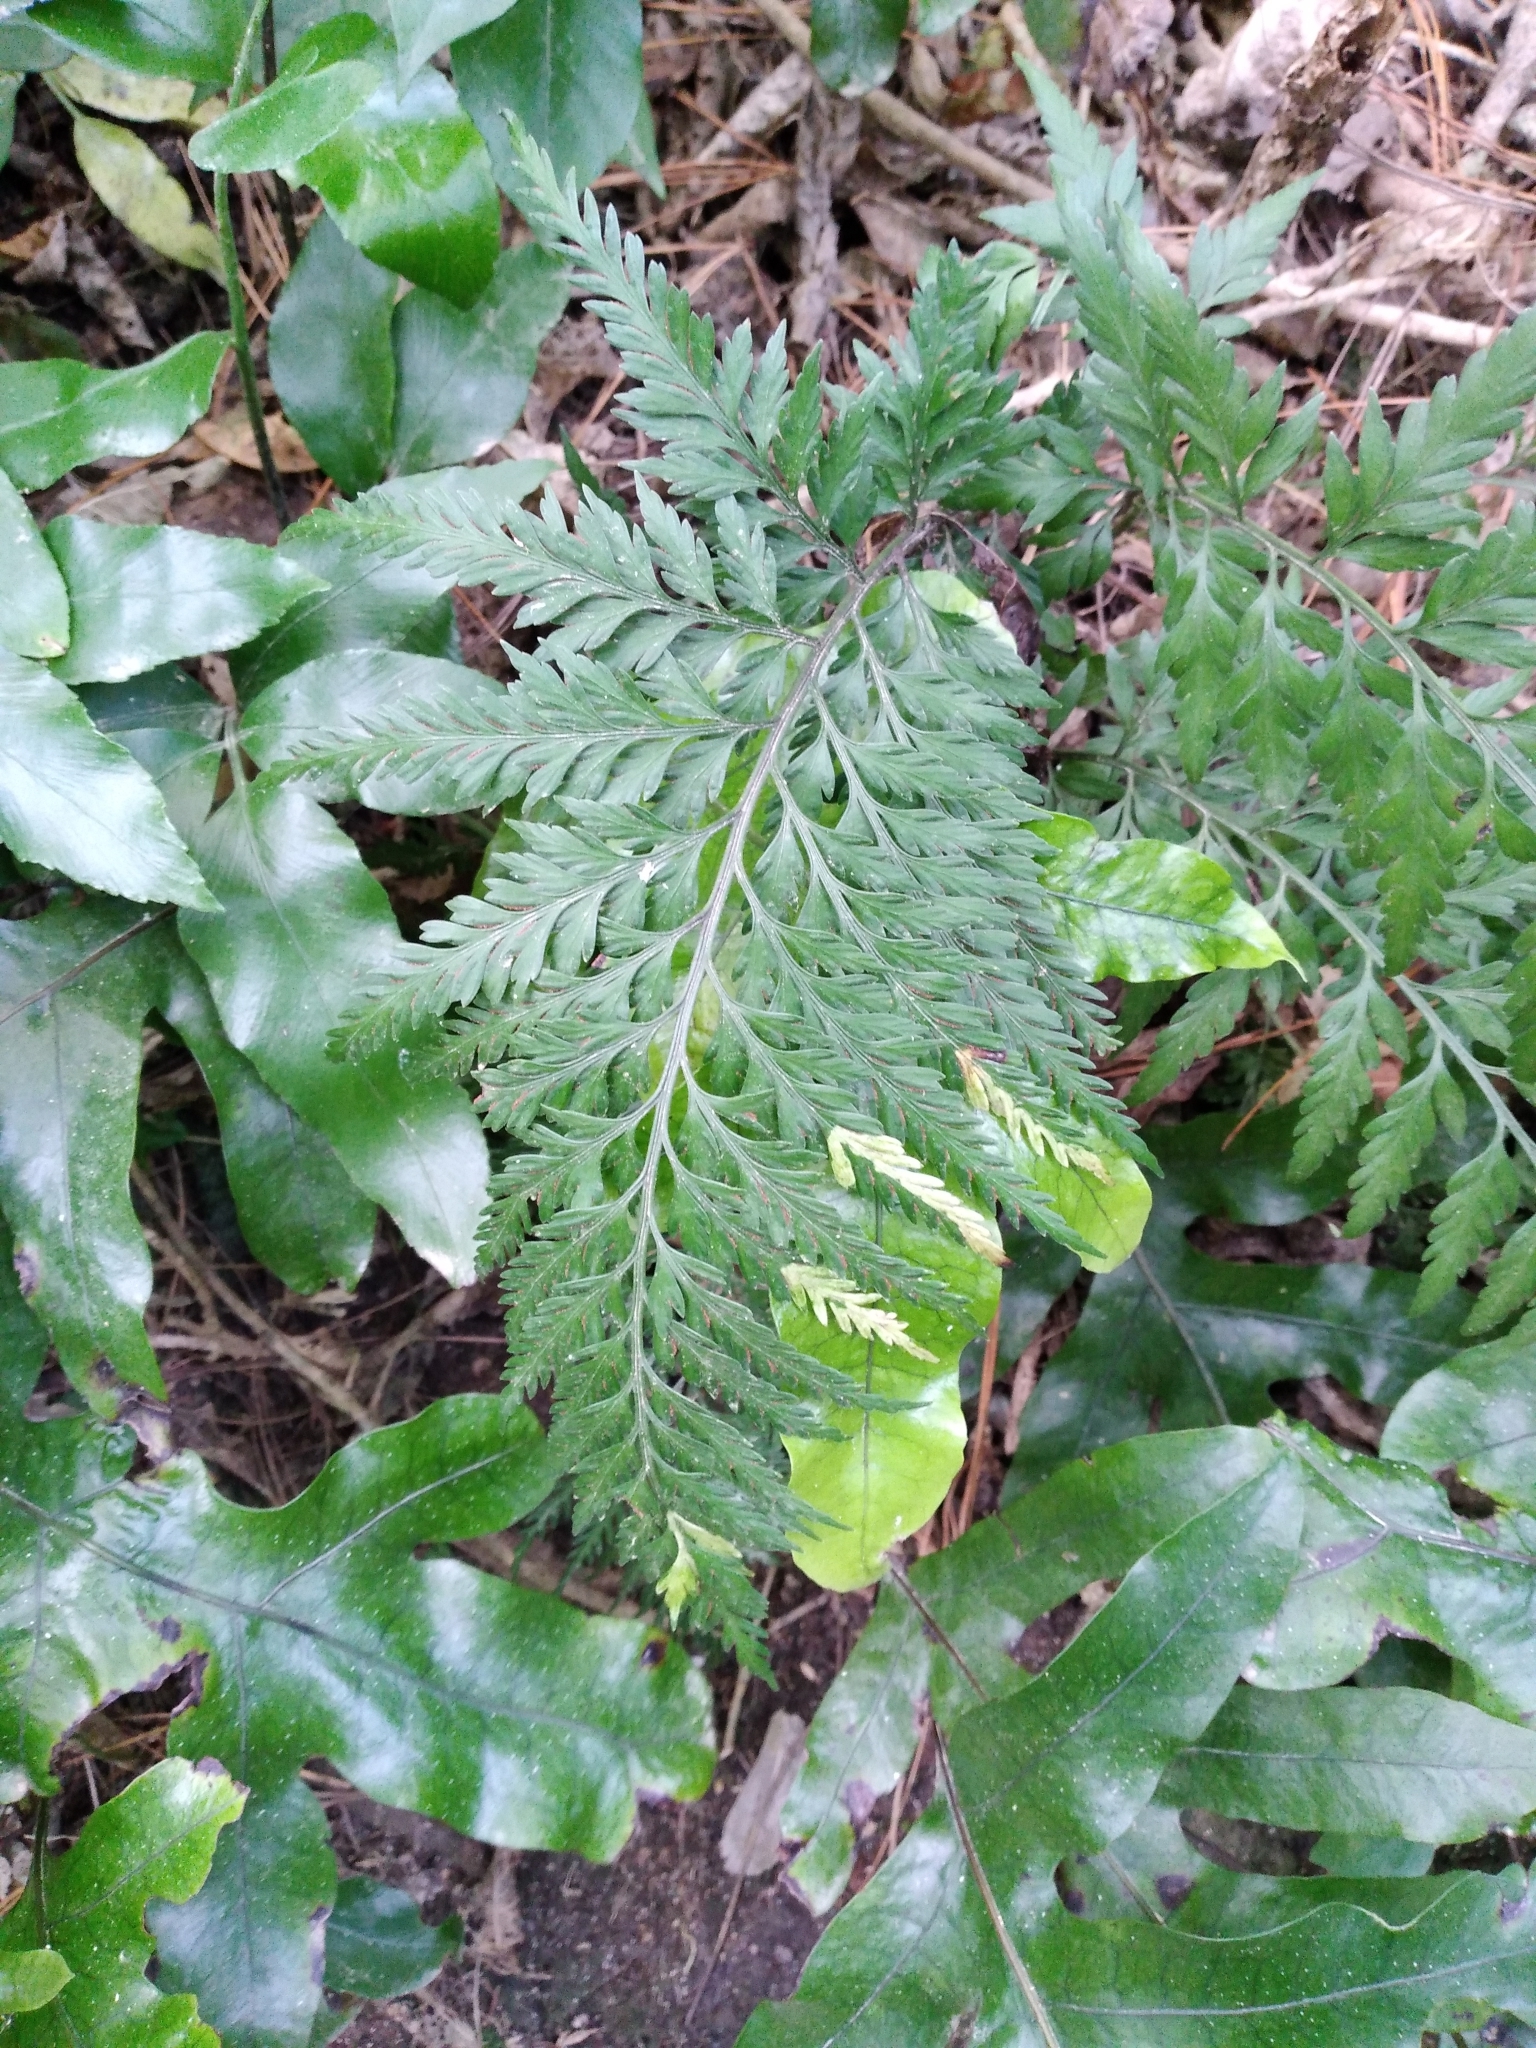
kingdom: Plantae
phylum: Tracheophyta
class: Polypodiopsida
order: Polypodiales
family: Aspleniaceae
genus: Asplenium
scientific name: Asplenium appendiculatum
